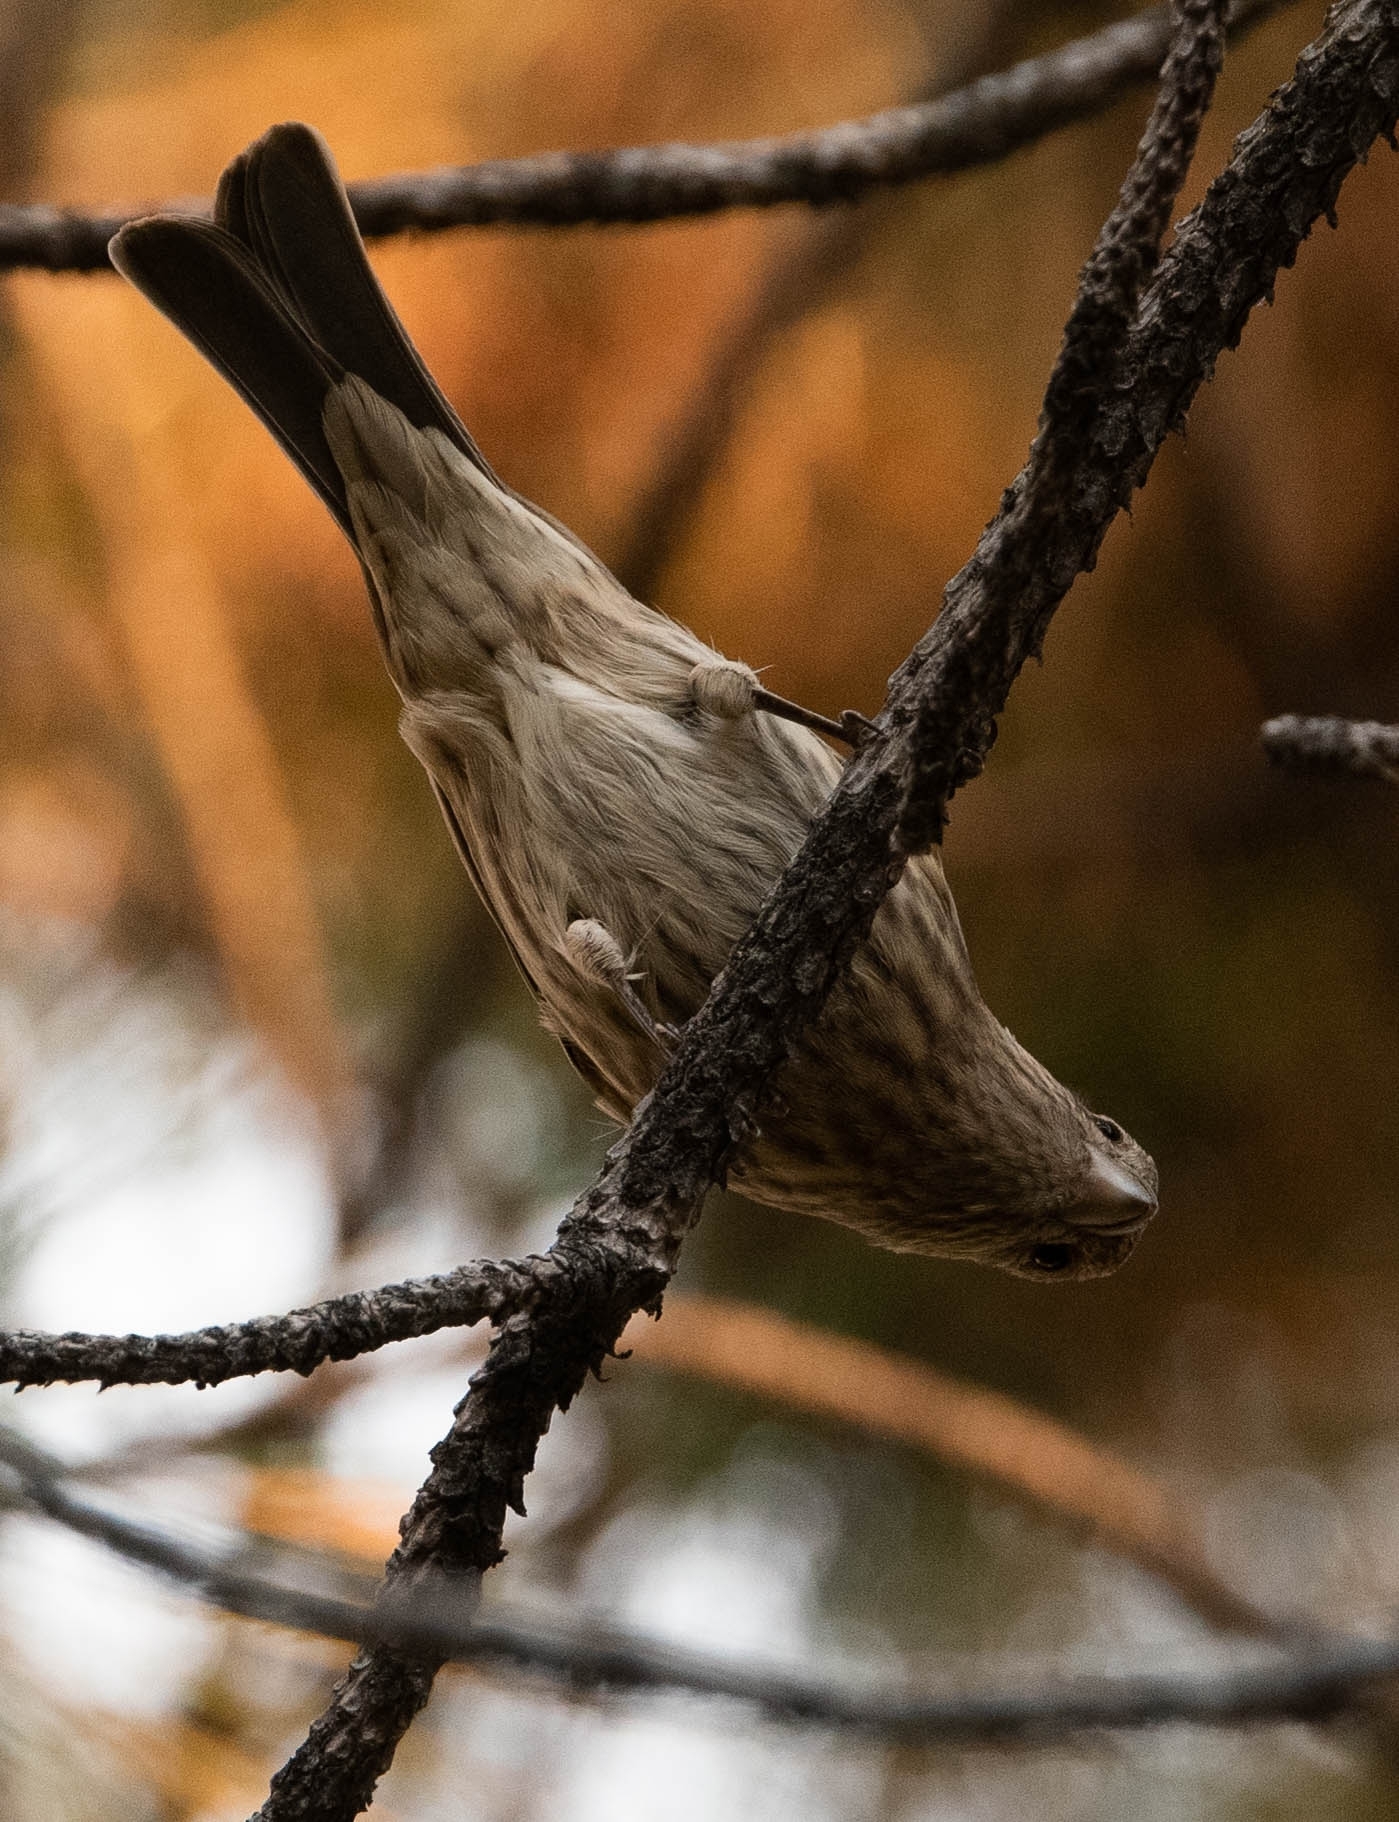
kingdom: Animalia
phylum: Chordata
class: Aves
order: Passeriformes
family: Fringillidae
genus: Haemorhous
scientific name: Haemorhous mexicanus
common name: House finch
